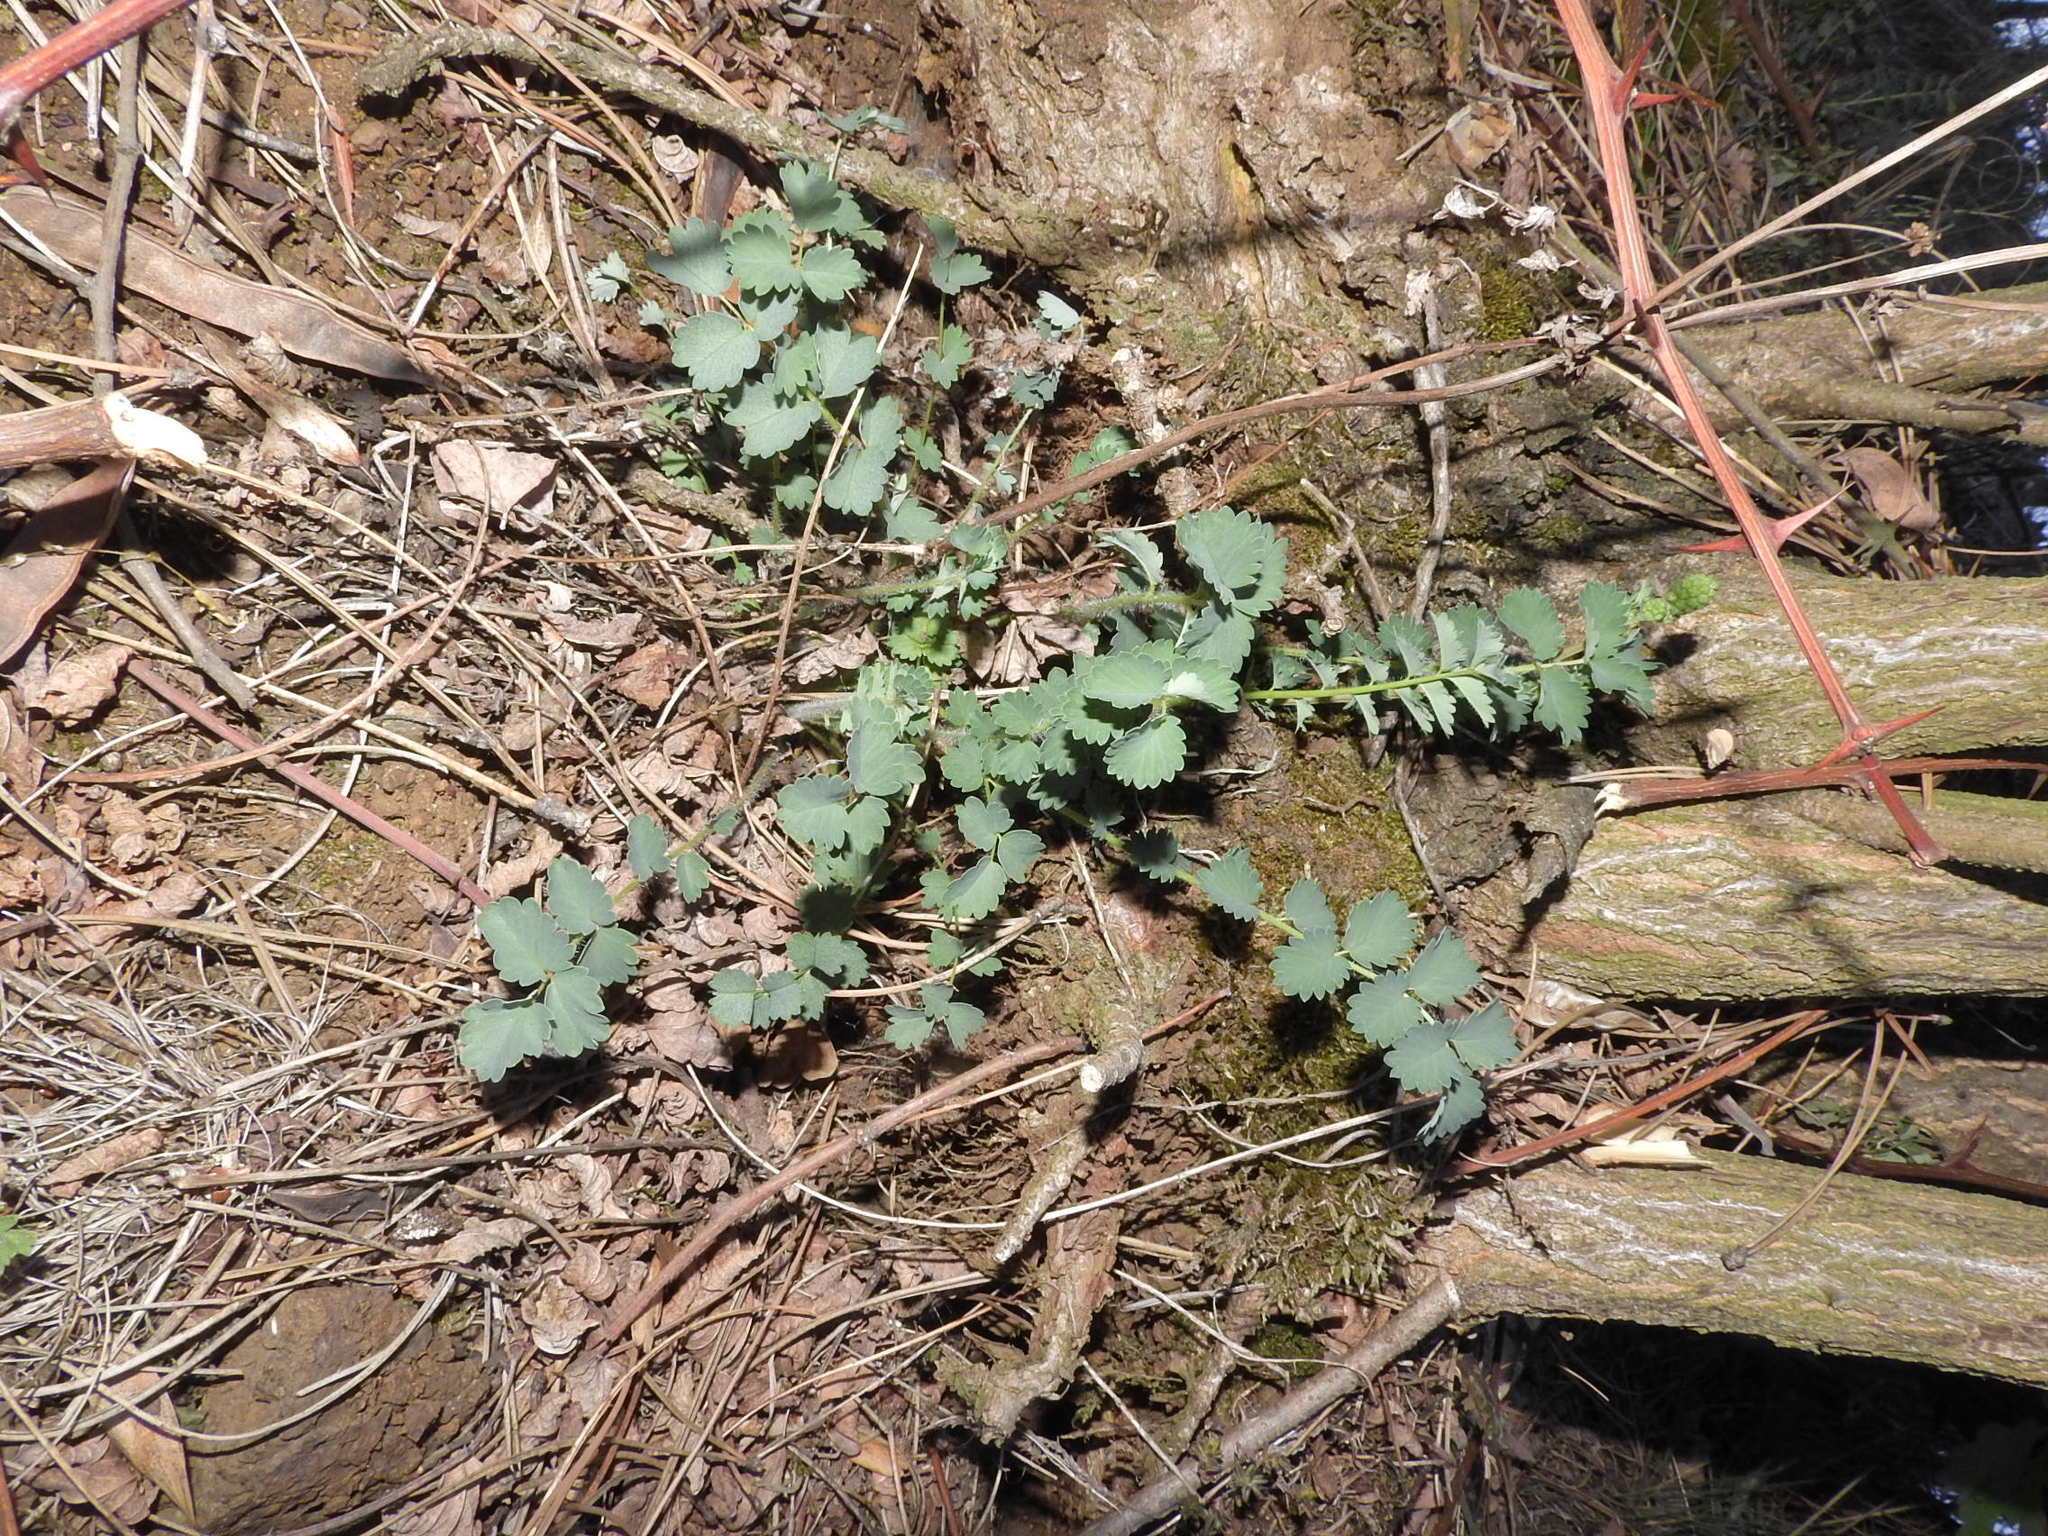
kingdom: Plantae
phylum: Tracheophyta
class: Magnoliopsida
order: Rosales
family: Rosaceae
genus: Poterium
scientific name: Poterium sanguisorba
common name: Salad burnet
